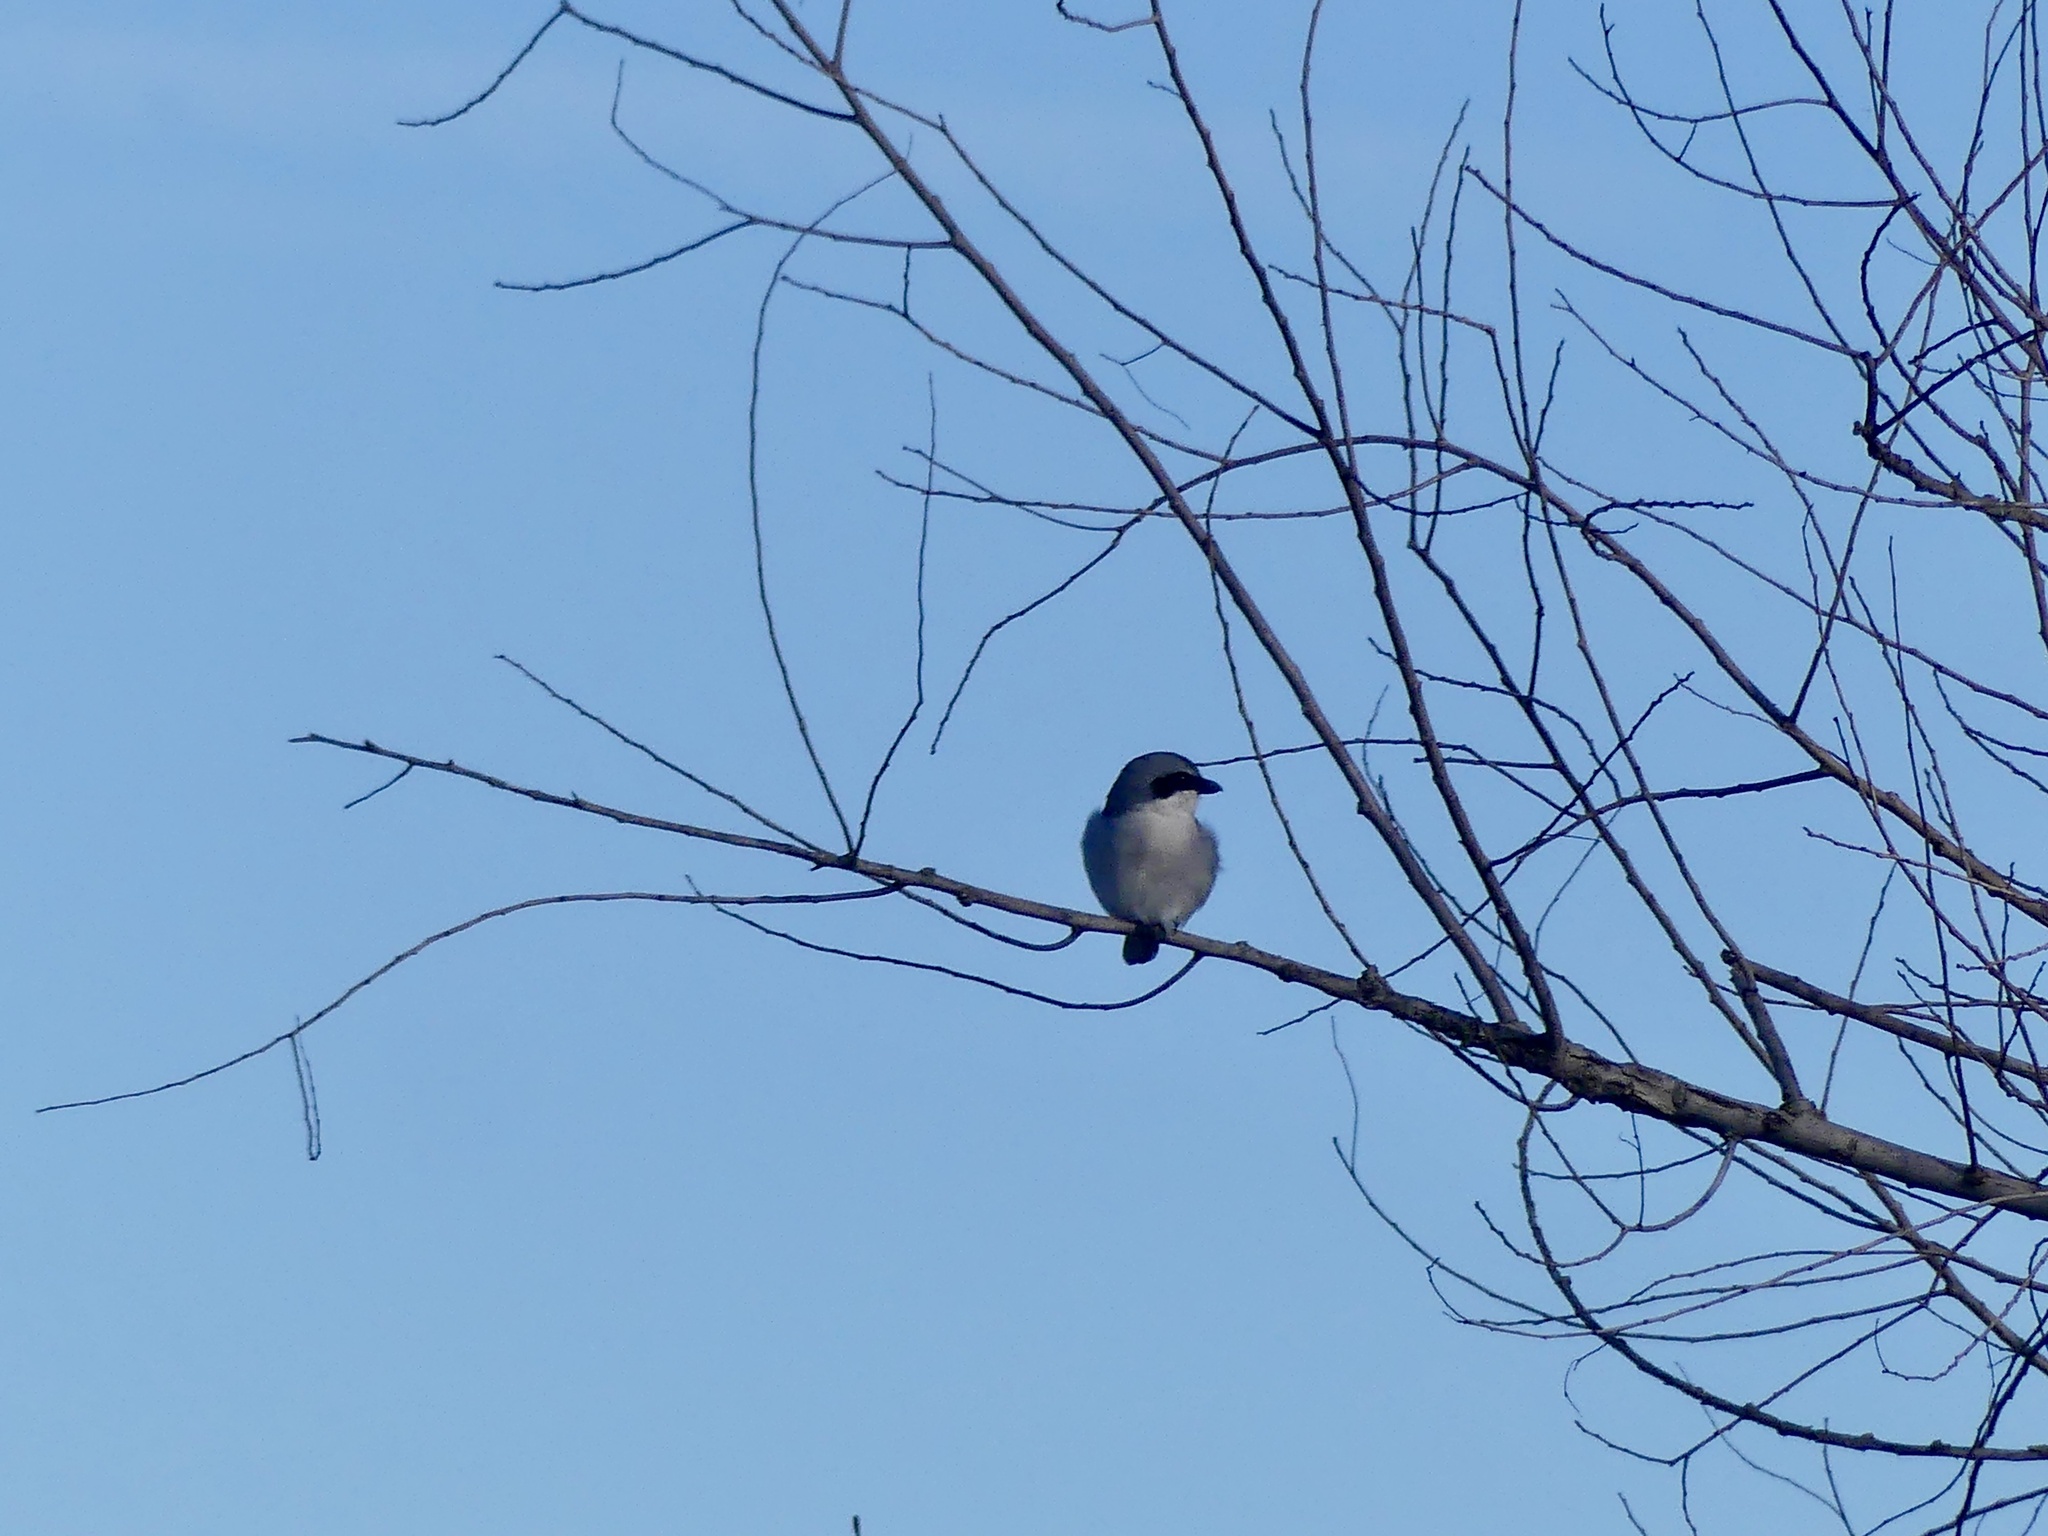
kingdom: Animalia
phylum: Chordata
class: Aves
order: Passeriformes
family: Laniidae
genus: Lanius
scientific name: Lanius ludovicianus
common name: Loggerhead shrike
